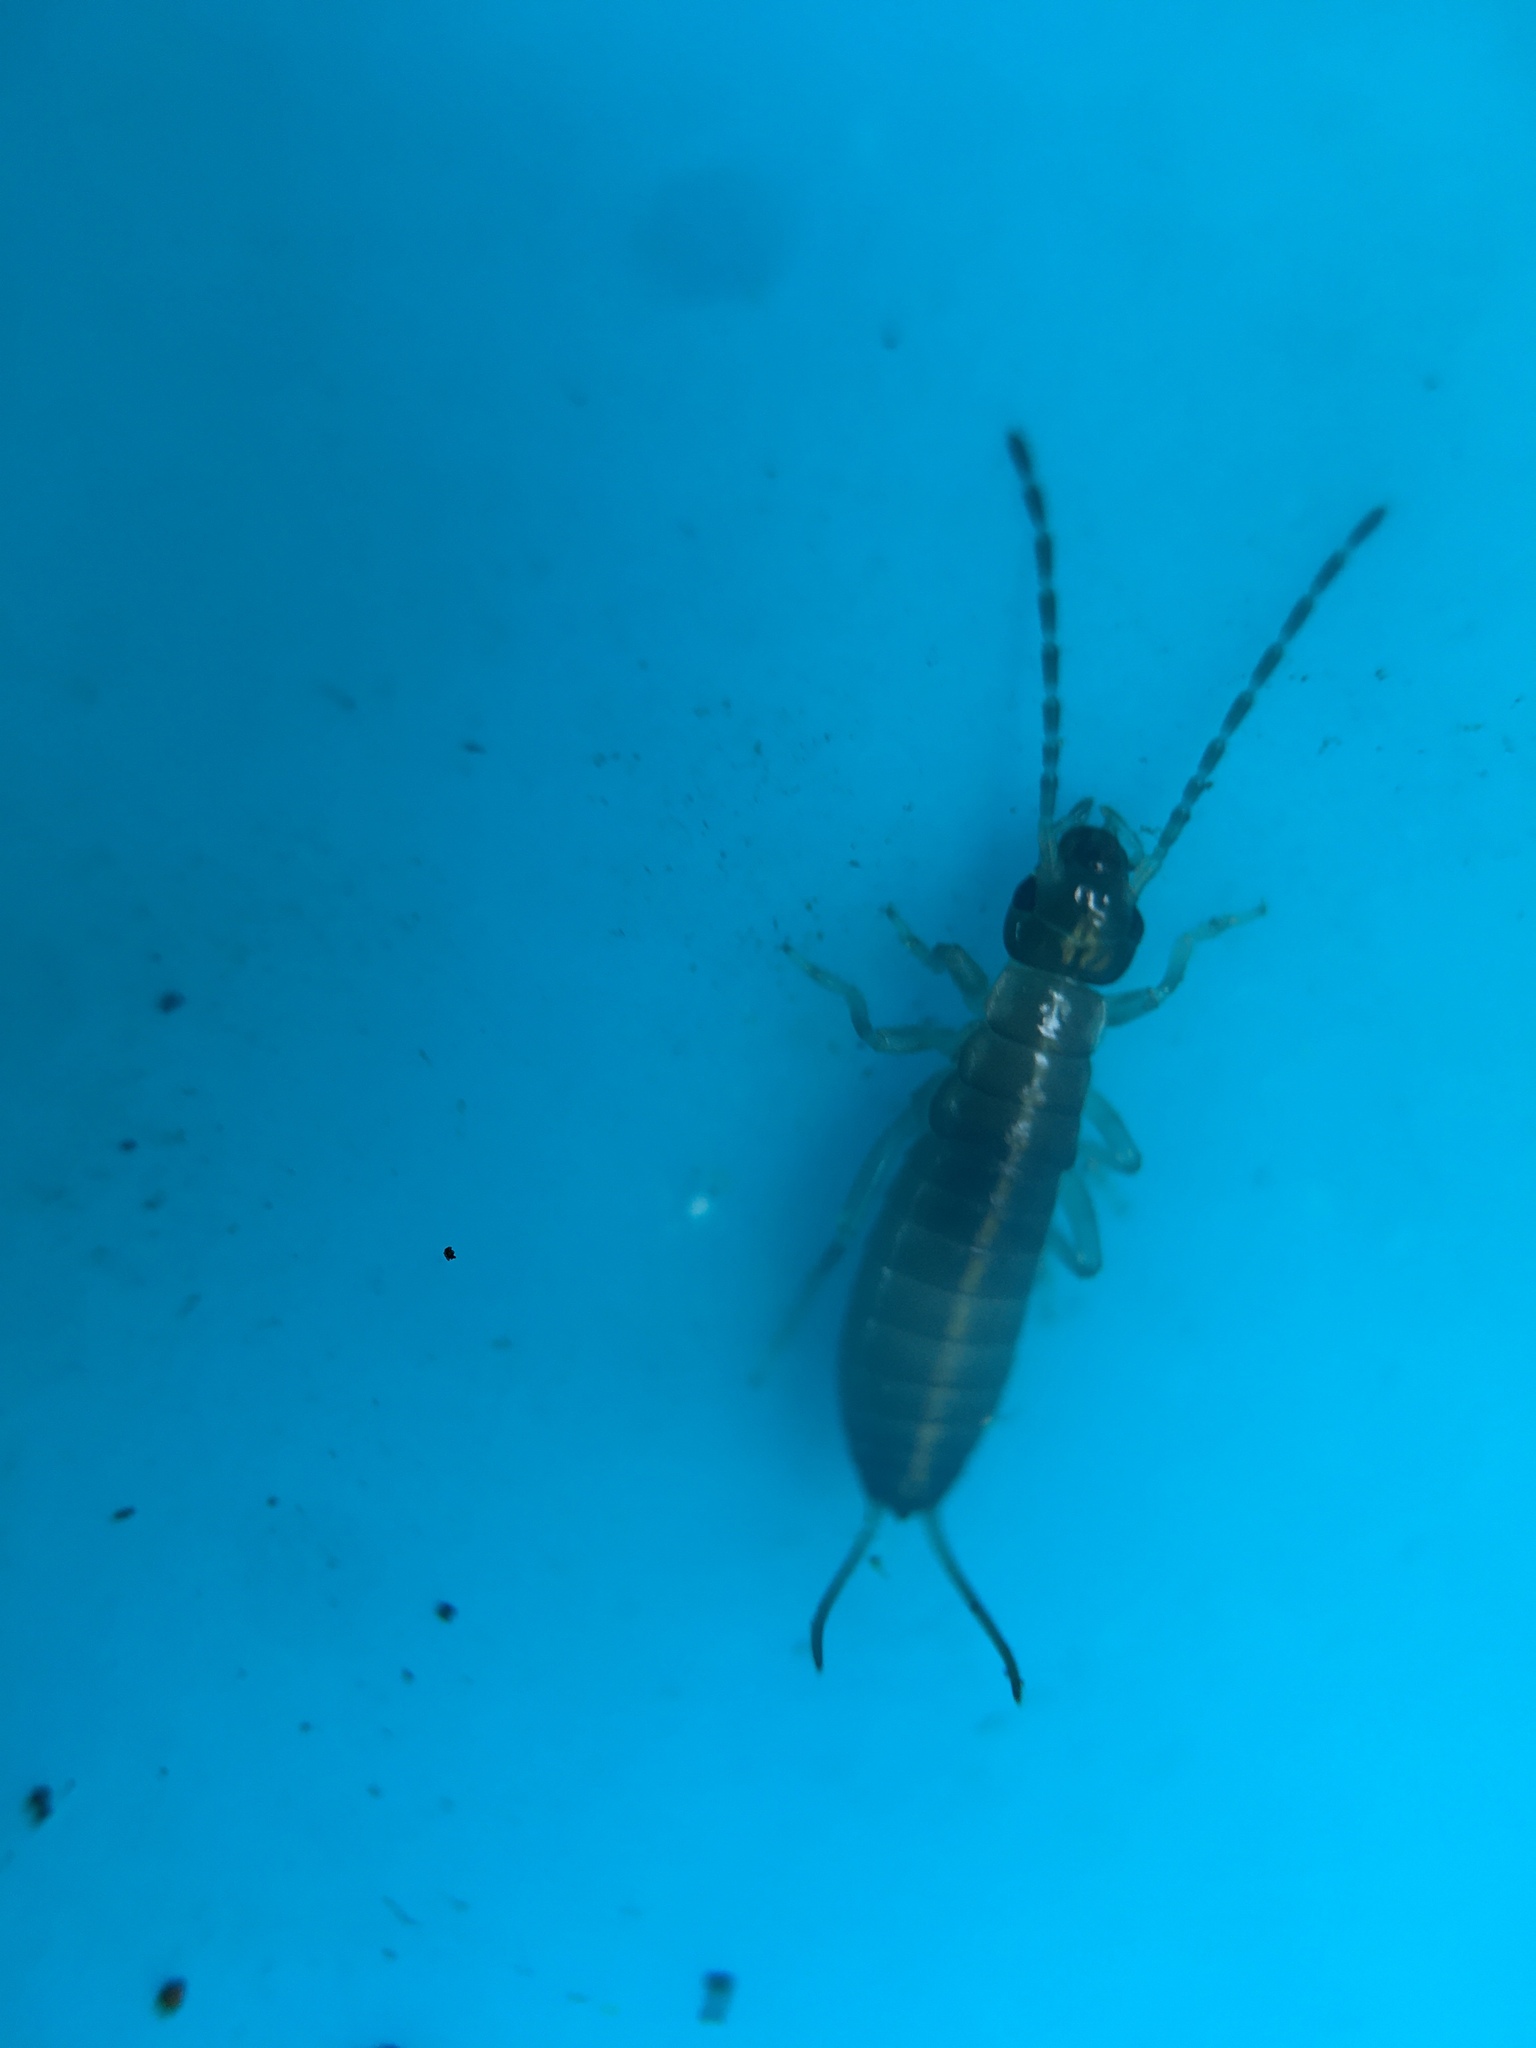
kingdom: Animalia
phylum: Arthropoda
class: Insecta
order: Dermaptera
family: Forficulidae
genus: Forficula
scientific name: Forficula dentata
